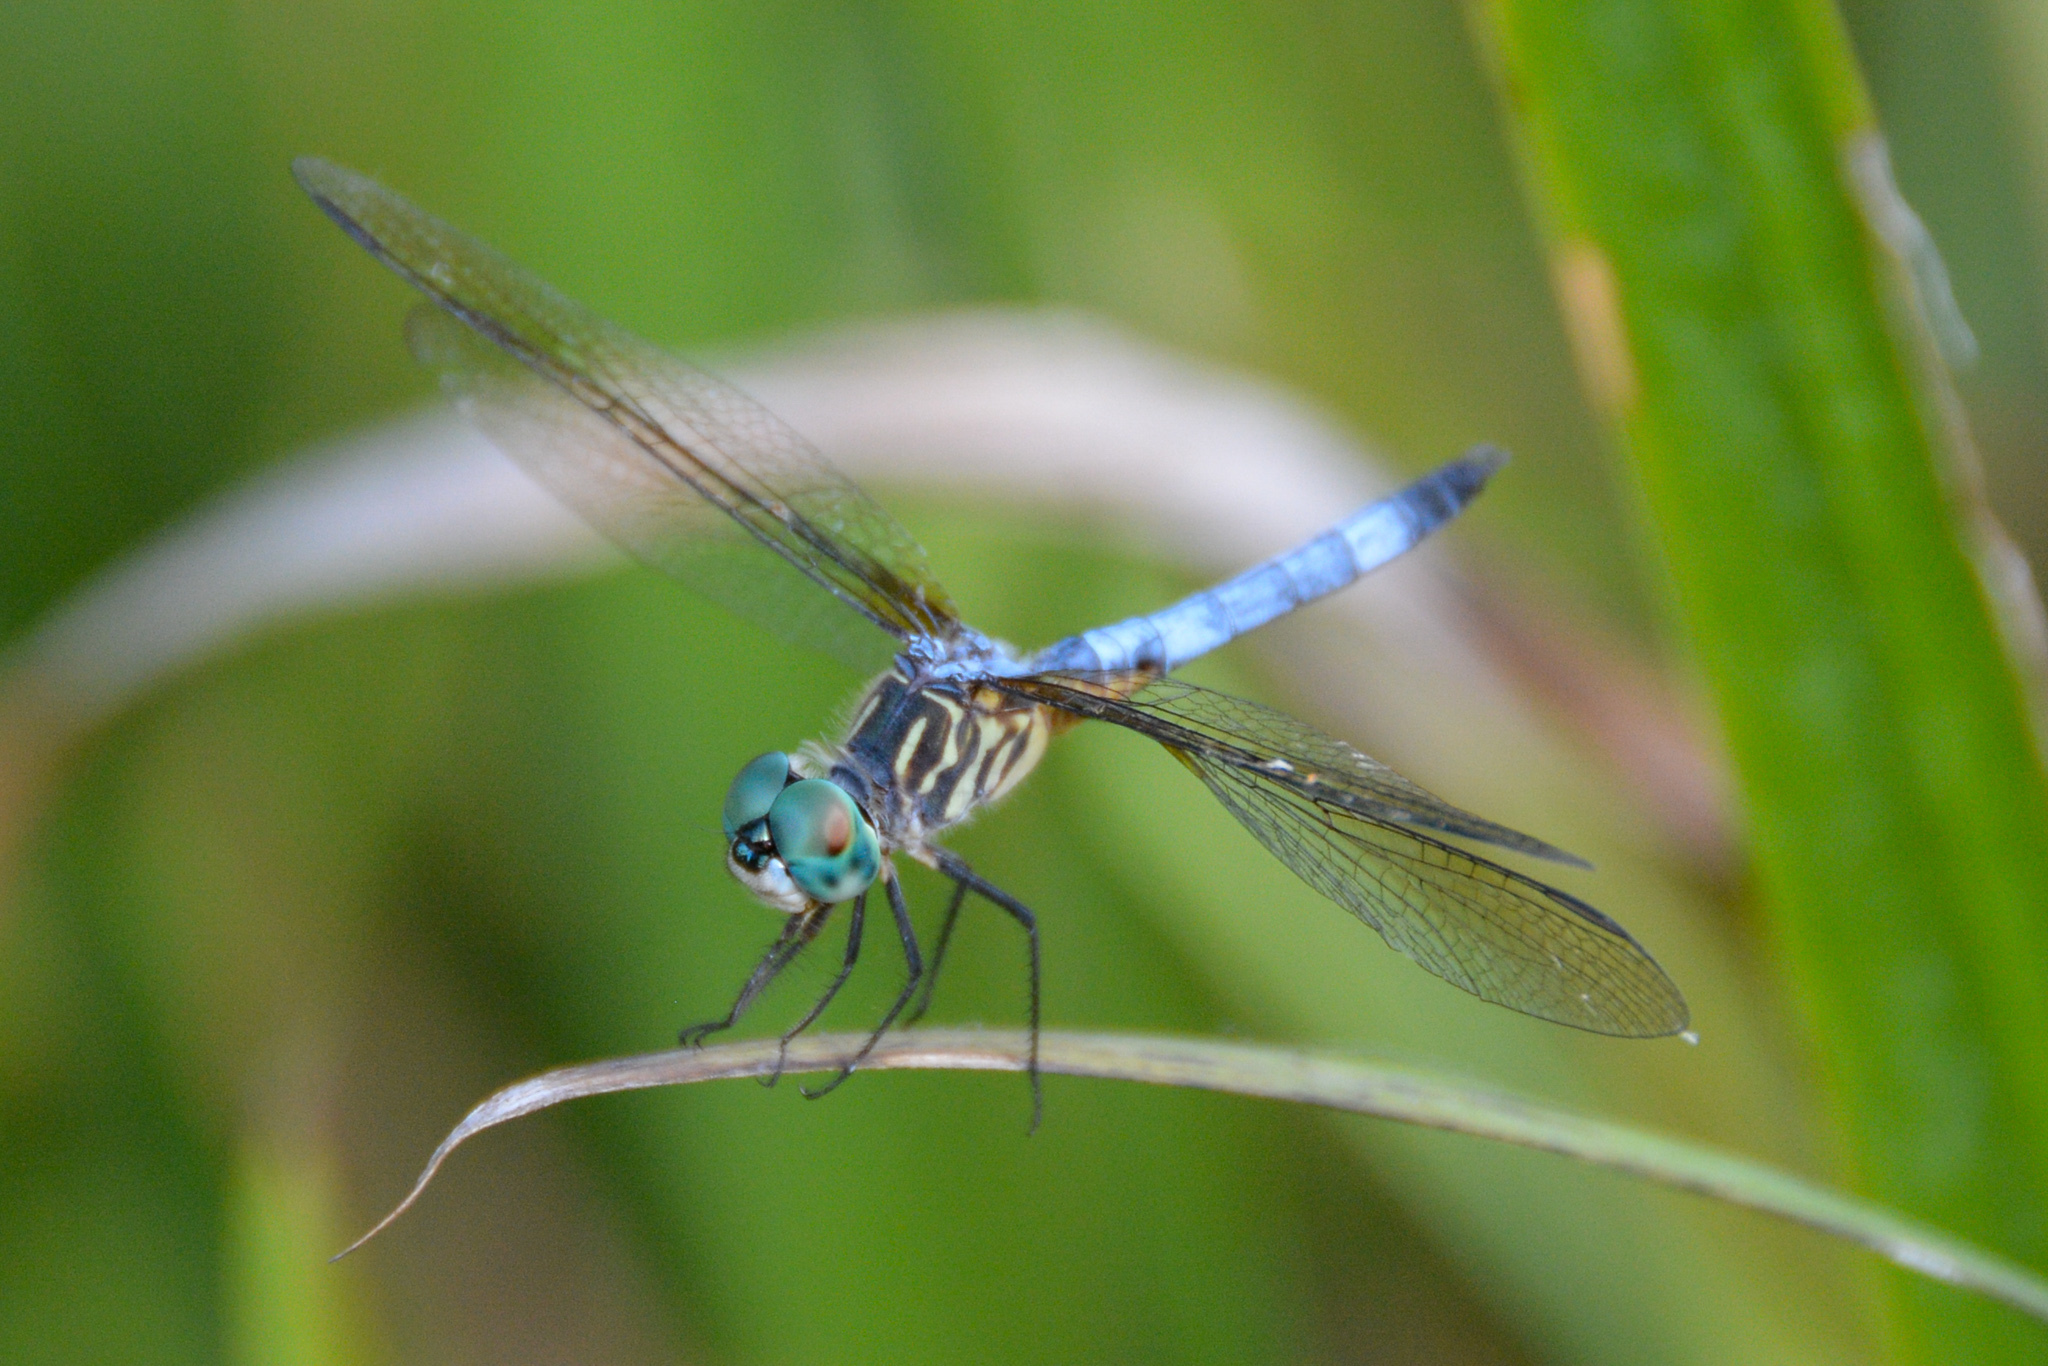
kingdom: Animalia
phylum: Arthropoda
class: Insecta
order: Odonata
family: Libellulidae
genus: Pachydiplax
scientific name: Pachydiplax longipennis
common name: Blue dasher
